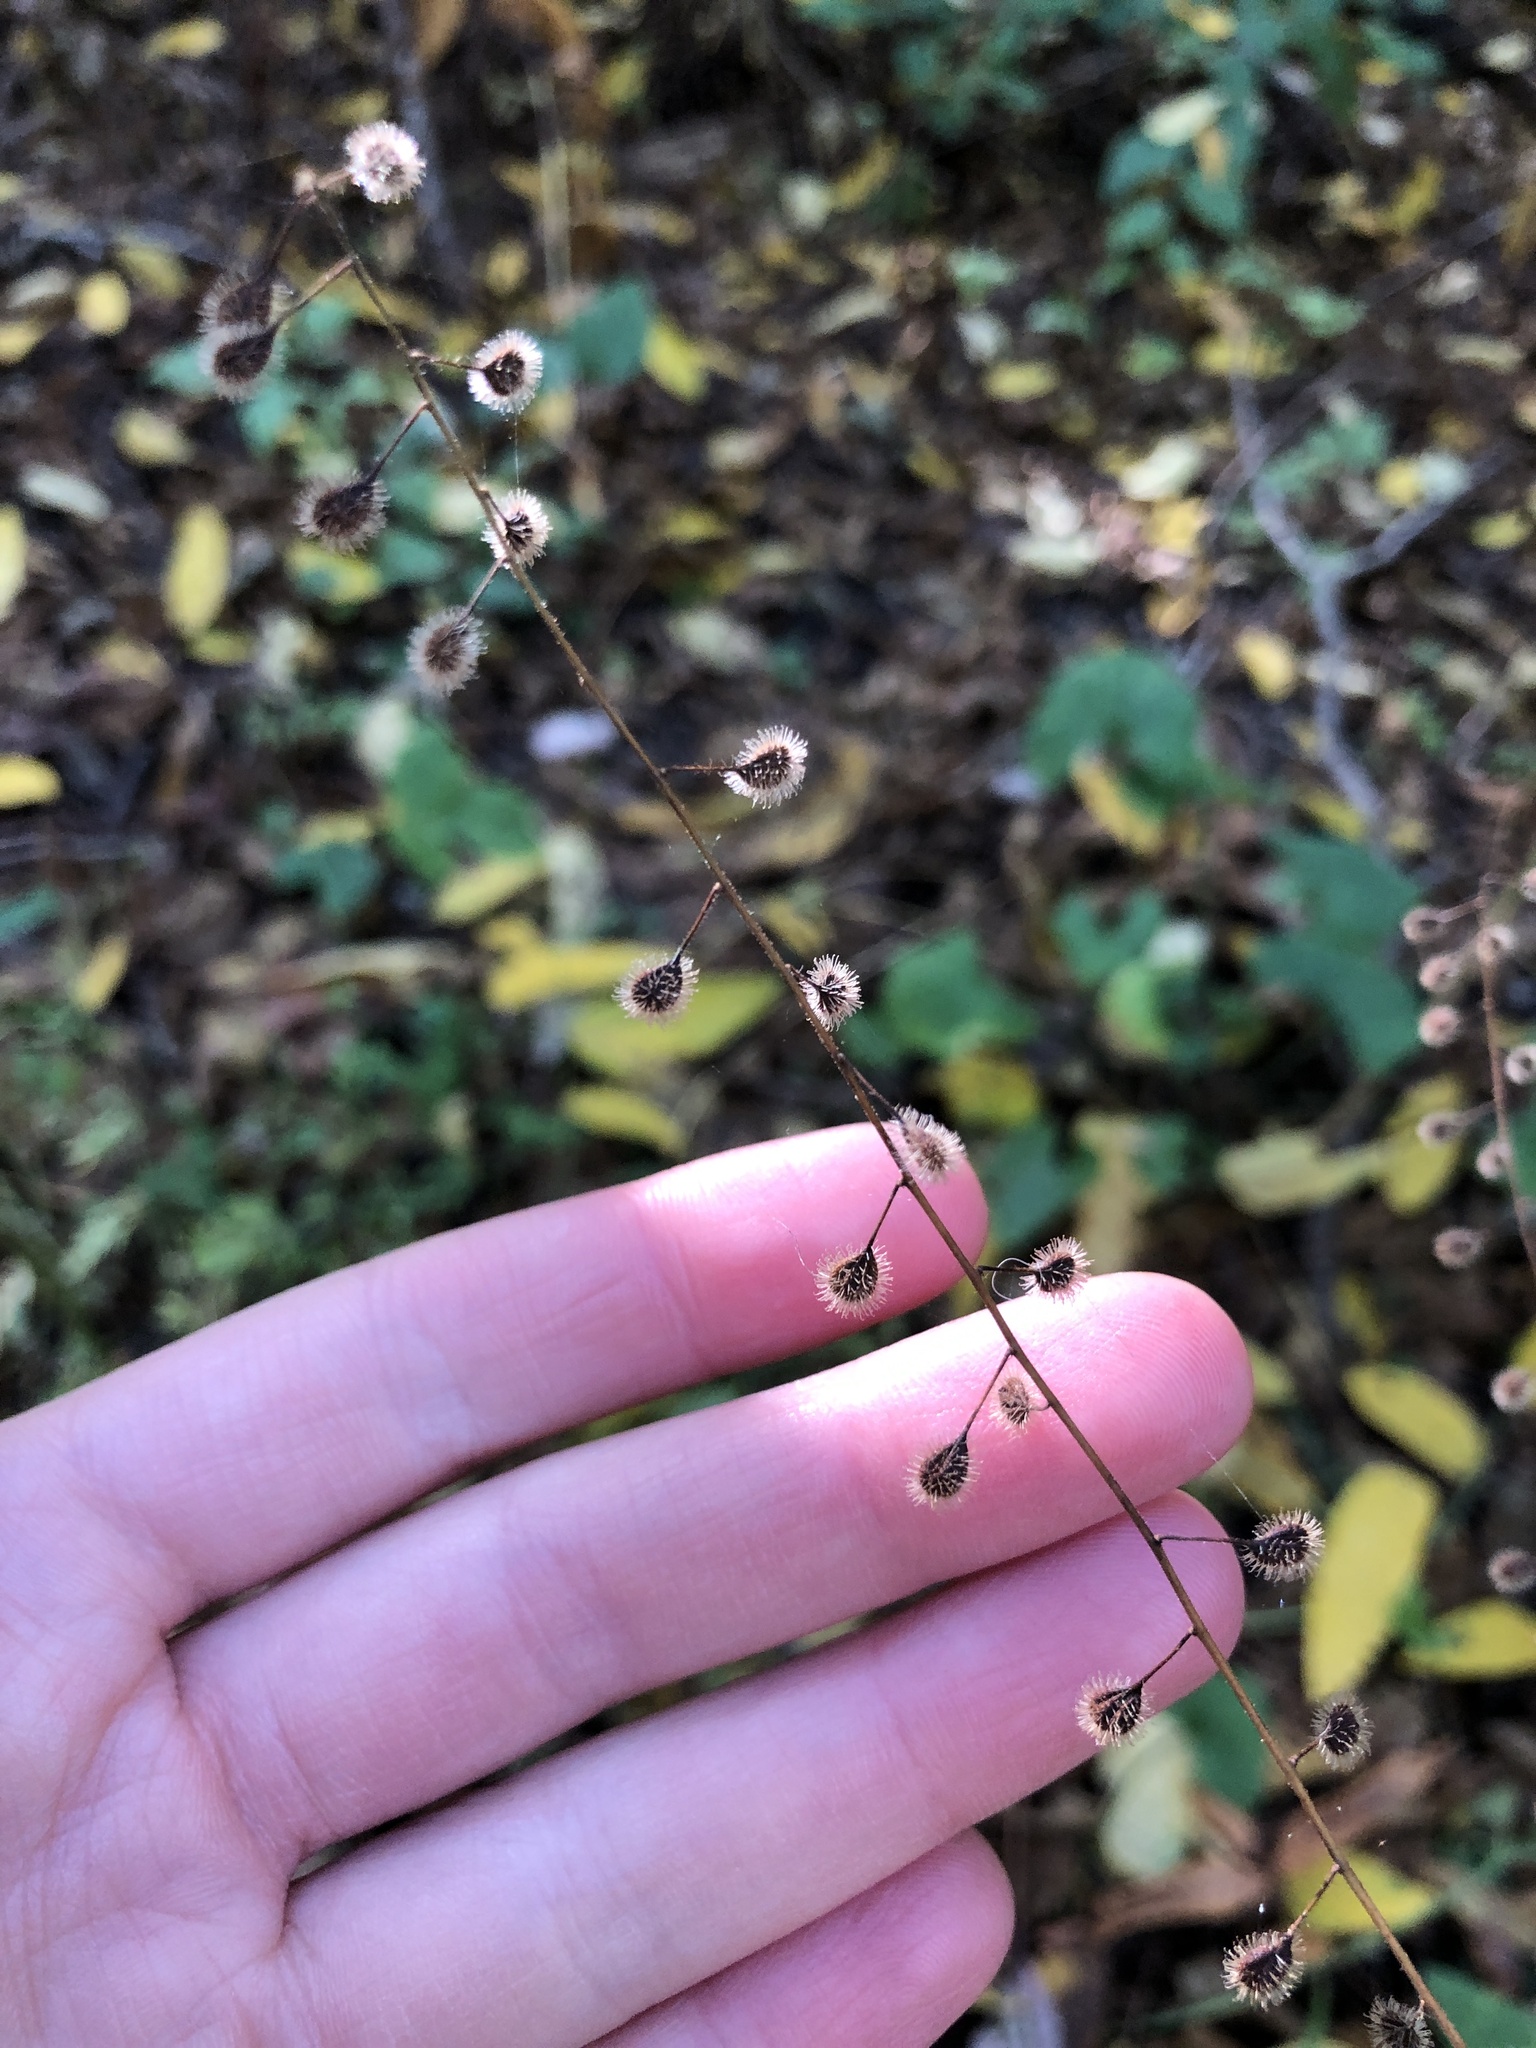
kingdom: Plantae
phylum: Tracheophyta
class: Magnoliopsida
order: Myrtales
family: Onagraceae
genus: Circaea
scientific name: Circaea canadensis
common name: Broad-leaved enchanter's nightshade
